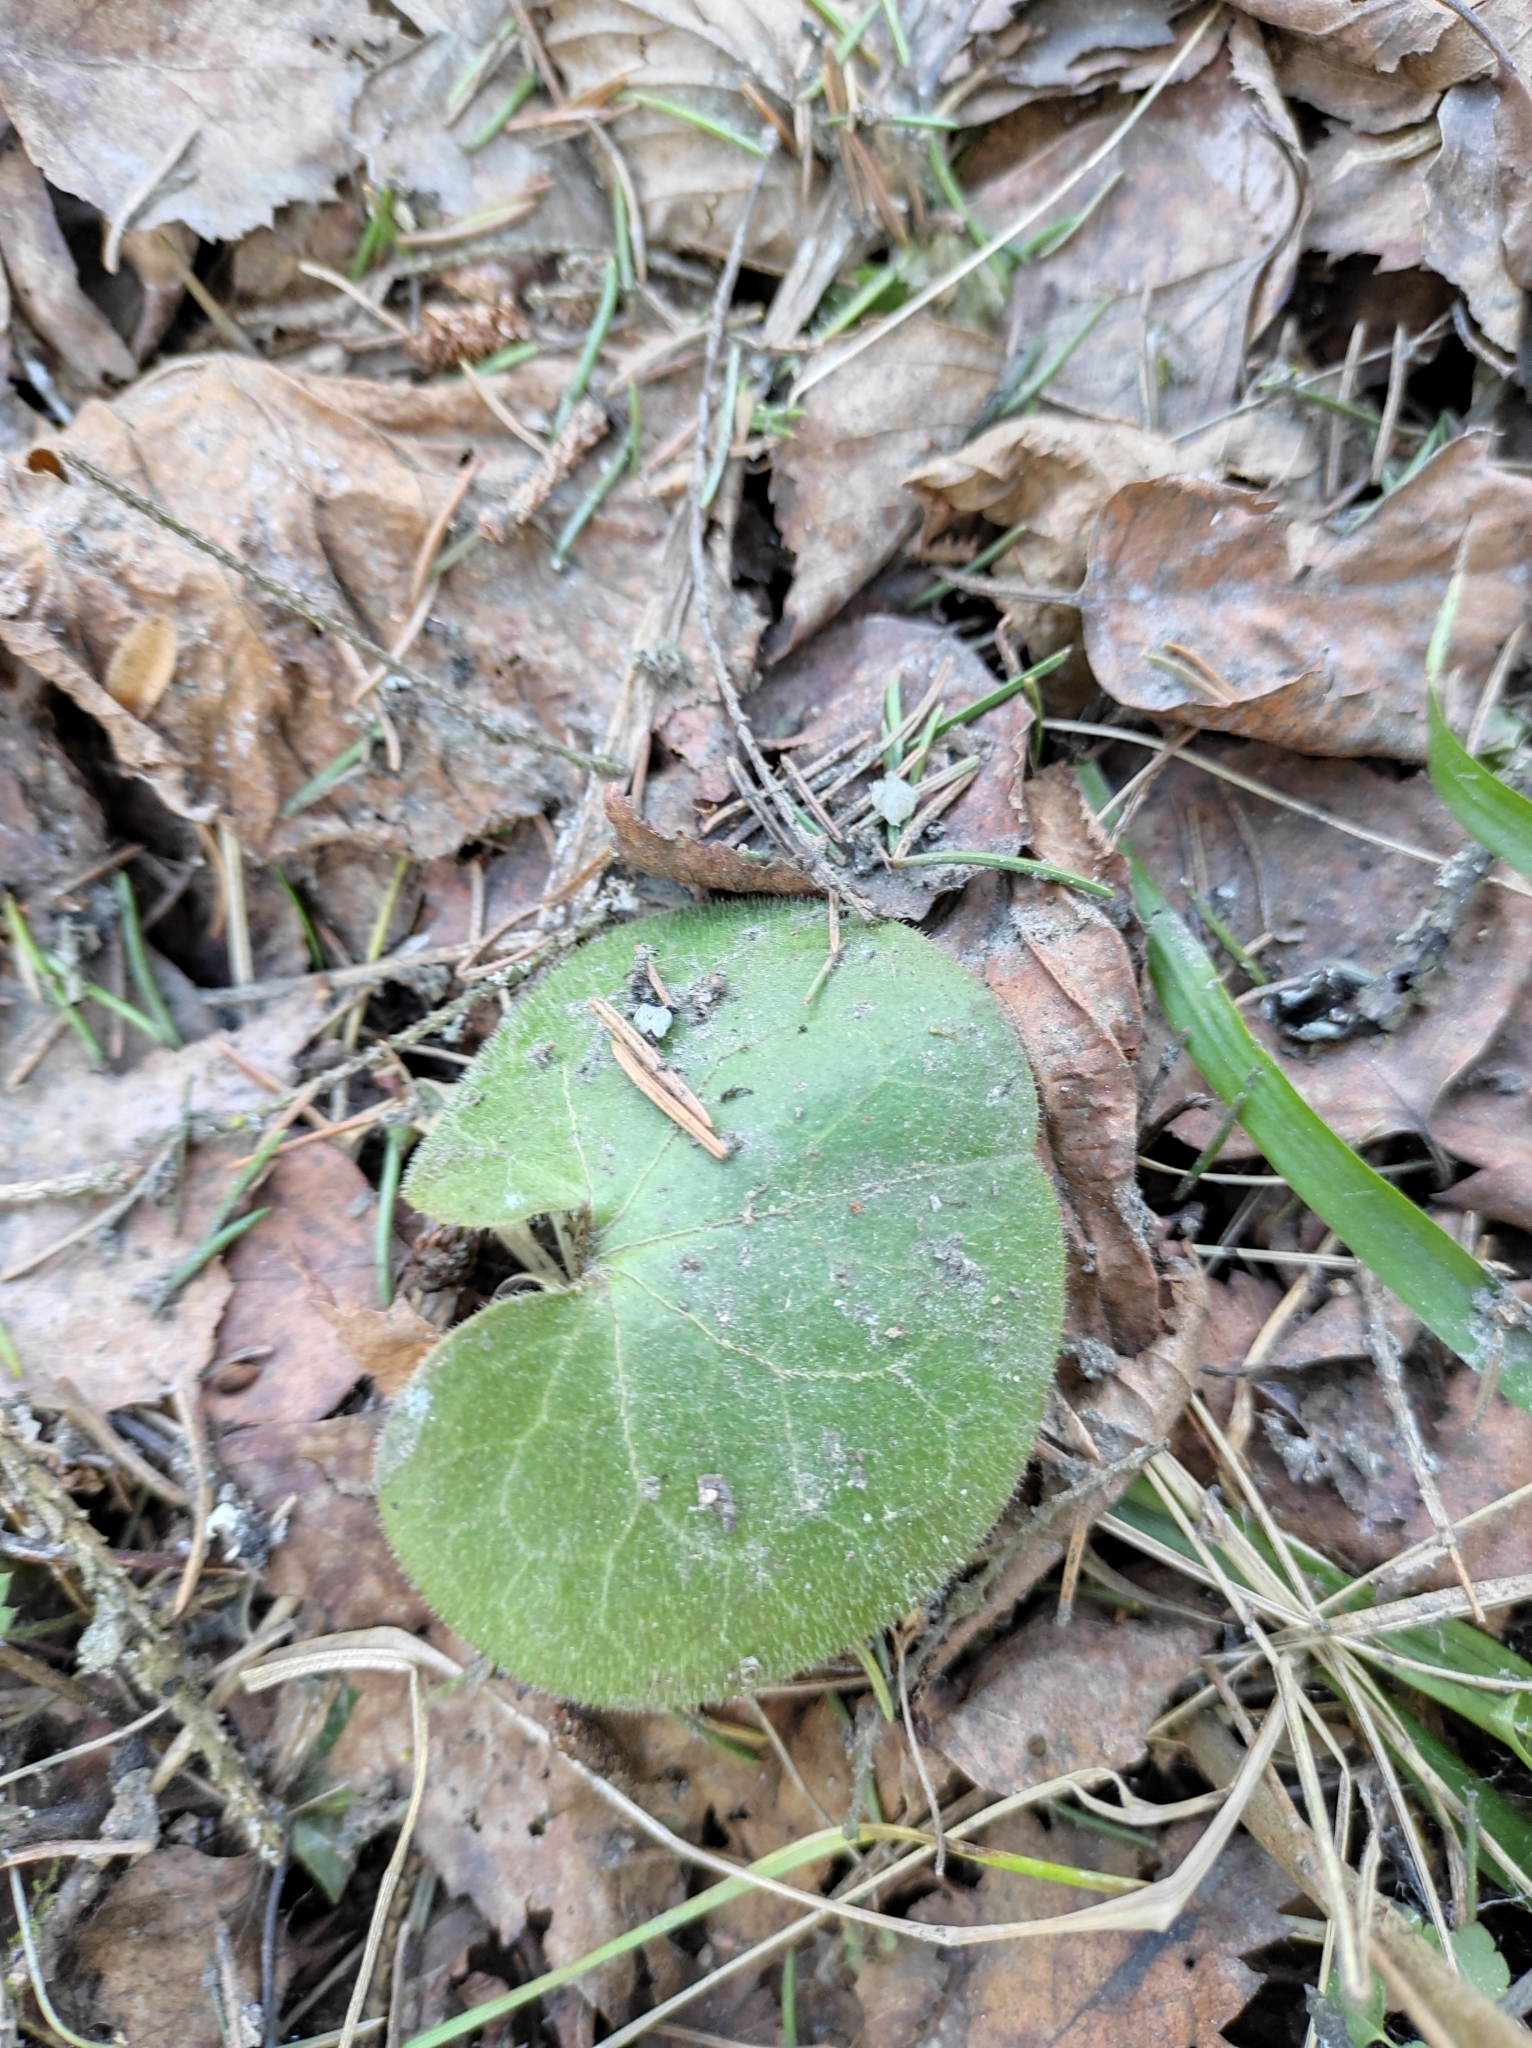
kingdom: Plantae
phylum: Tracheophyta
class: Magnoliopsida
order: Piperales
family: Aristolochiaceae
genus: Asarum
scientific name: Asarum europaeum
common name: Asarabacca
